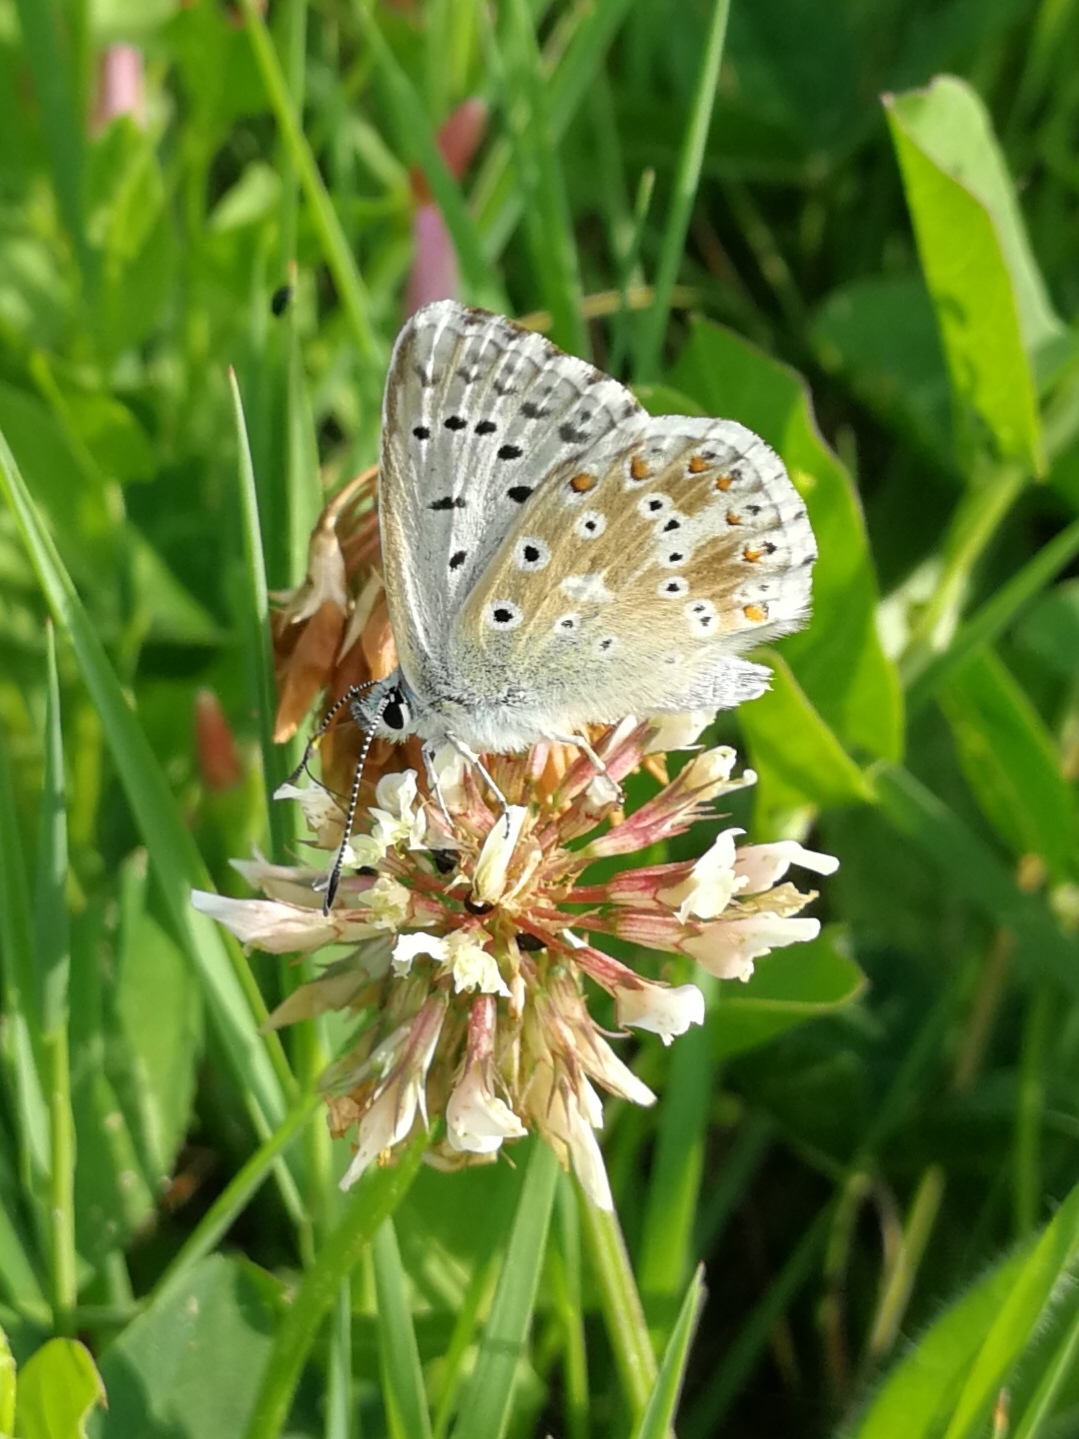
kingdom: Animalia
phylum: Arthropoda
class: Insecta
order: Lepidoptera
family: Lycaenidae
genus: Lysandra
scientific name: Lysandra coridon
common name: Chalkhill blue
